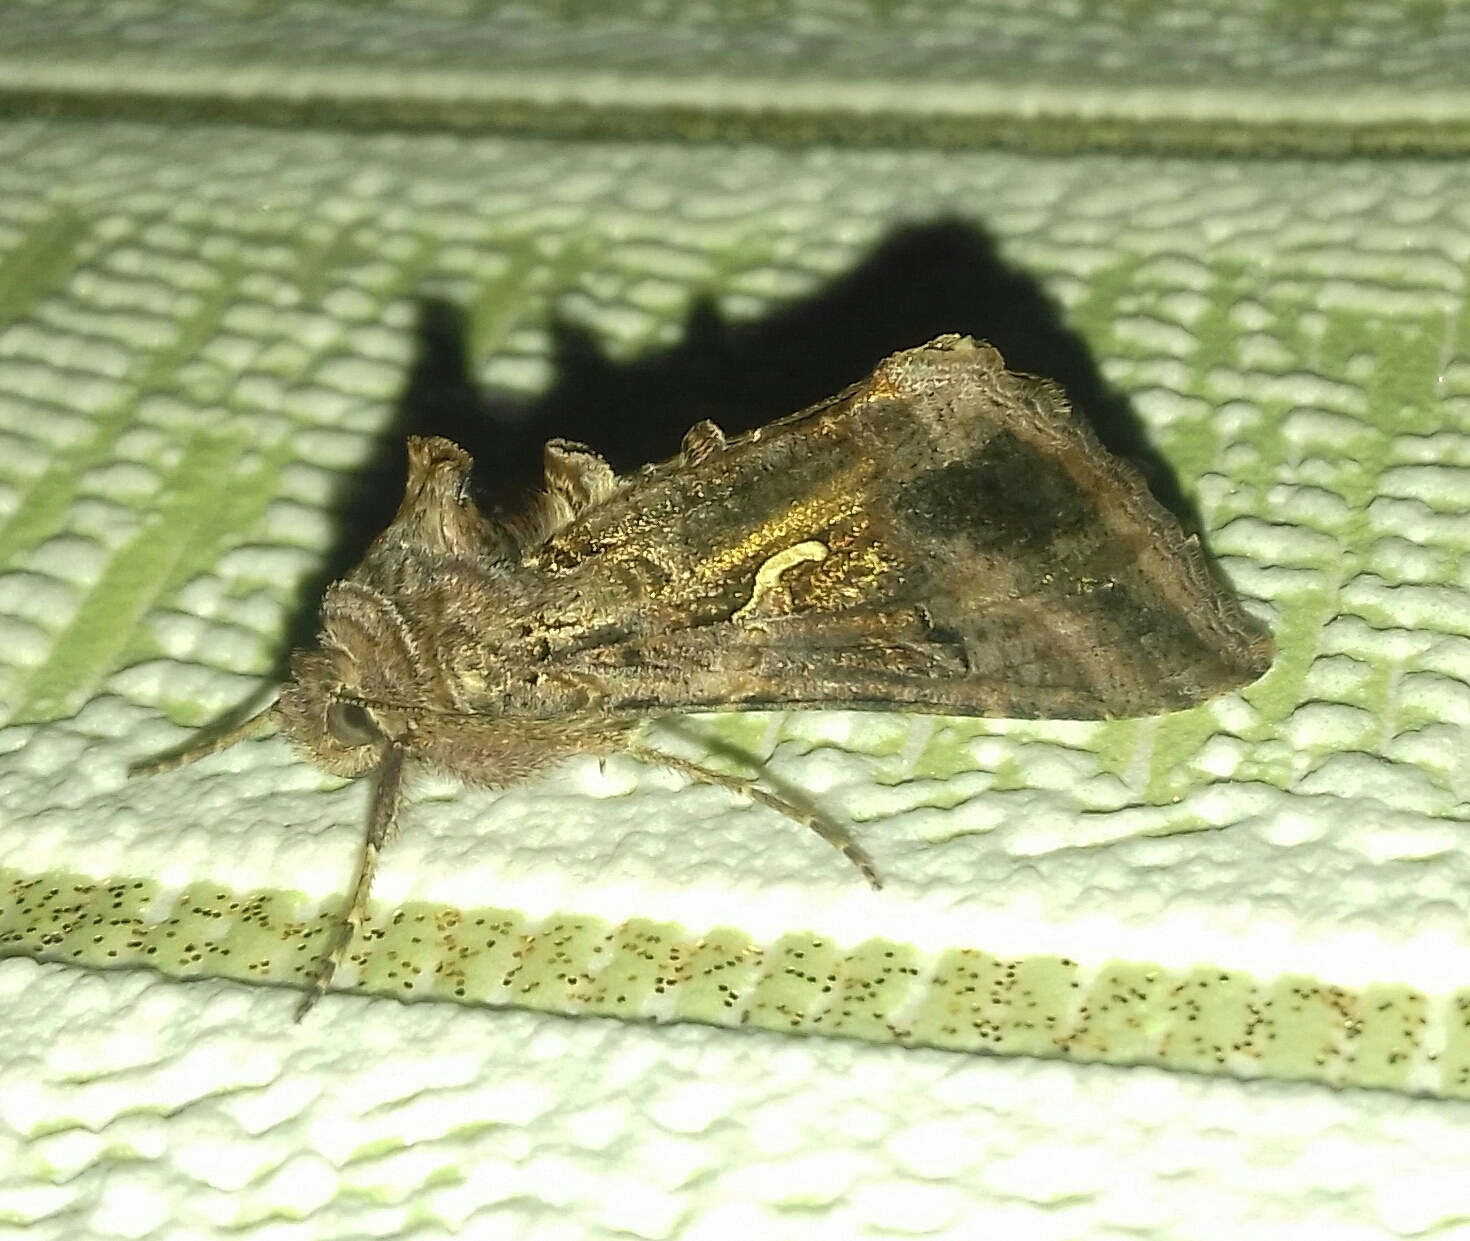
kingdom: Animalia
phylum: Arthropoda
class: Insecta
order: Lepidoptera
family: Noctuidae
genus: Autographa
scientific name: Autographa gamma
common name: Silver y
